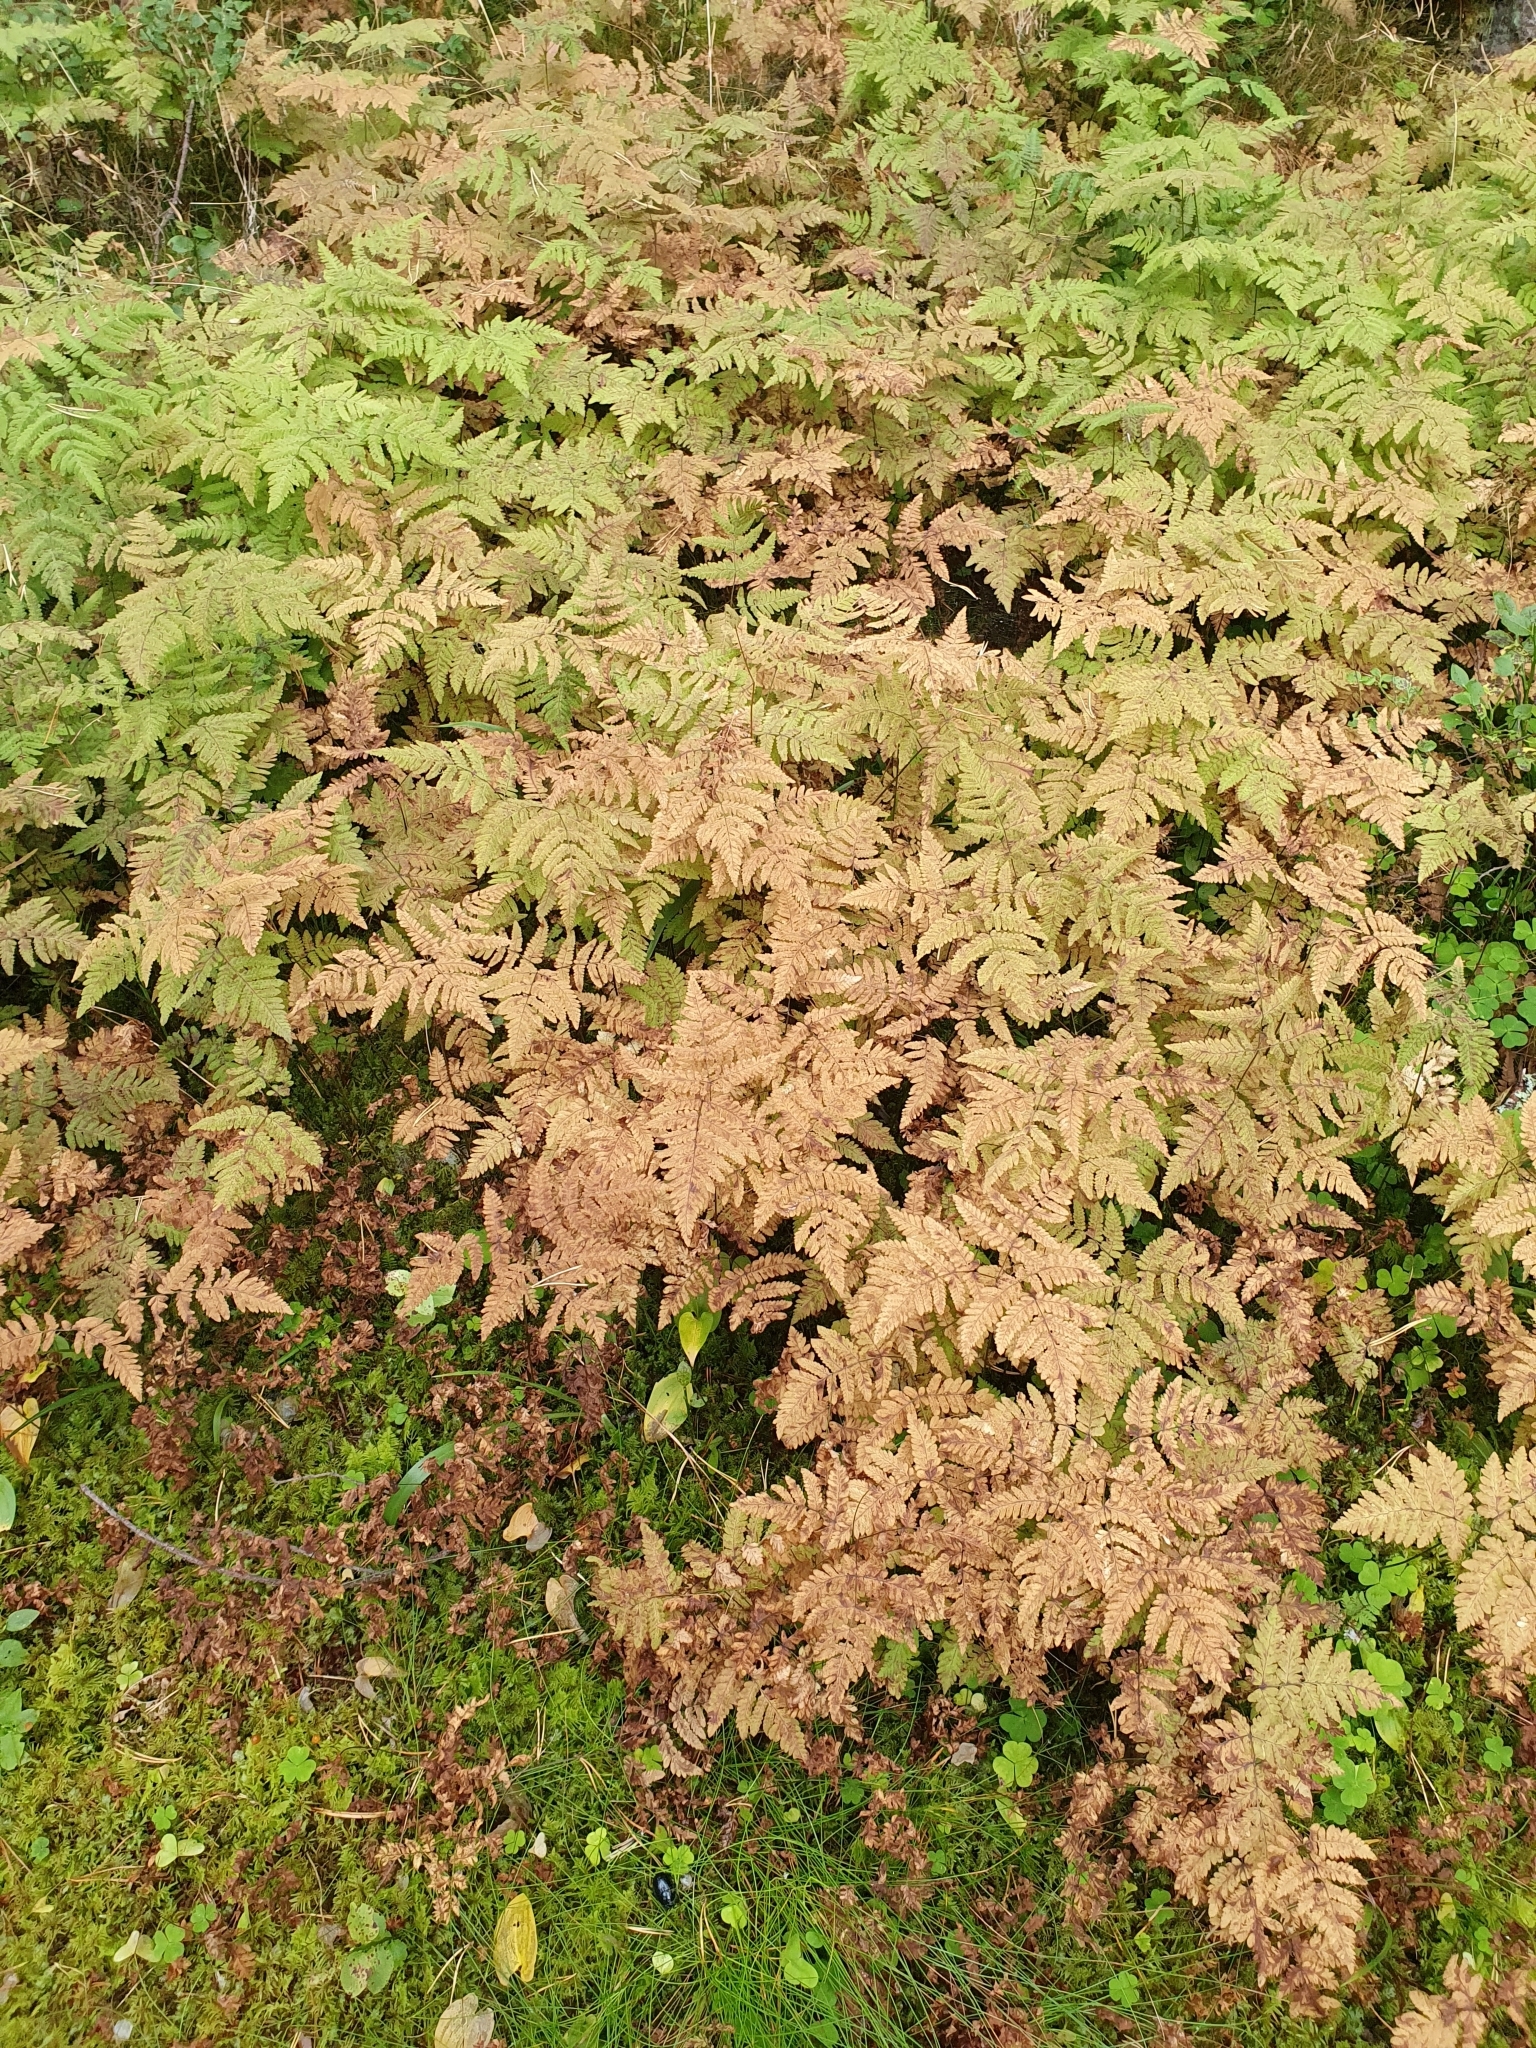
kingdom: Plantae
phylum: Tracheophyta
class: Polypodiopsida
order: Polypodiales
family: Cystopteridaceae
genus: Gymnocarpium
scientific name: Gymnocarpium dryopteris
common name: Oak fern
